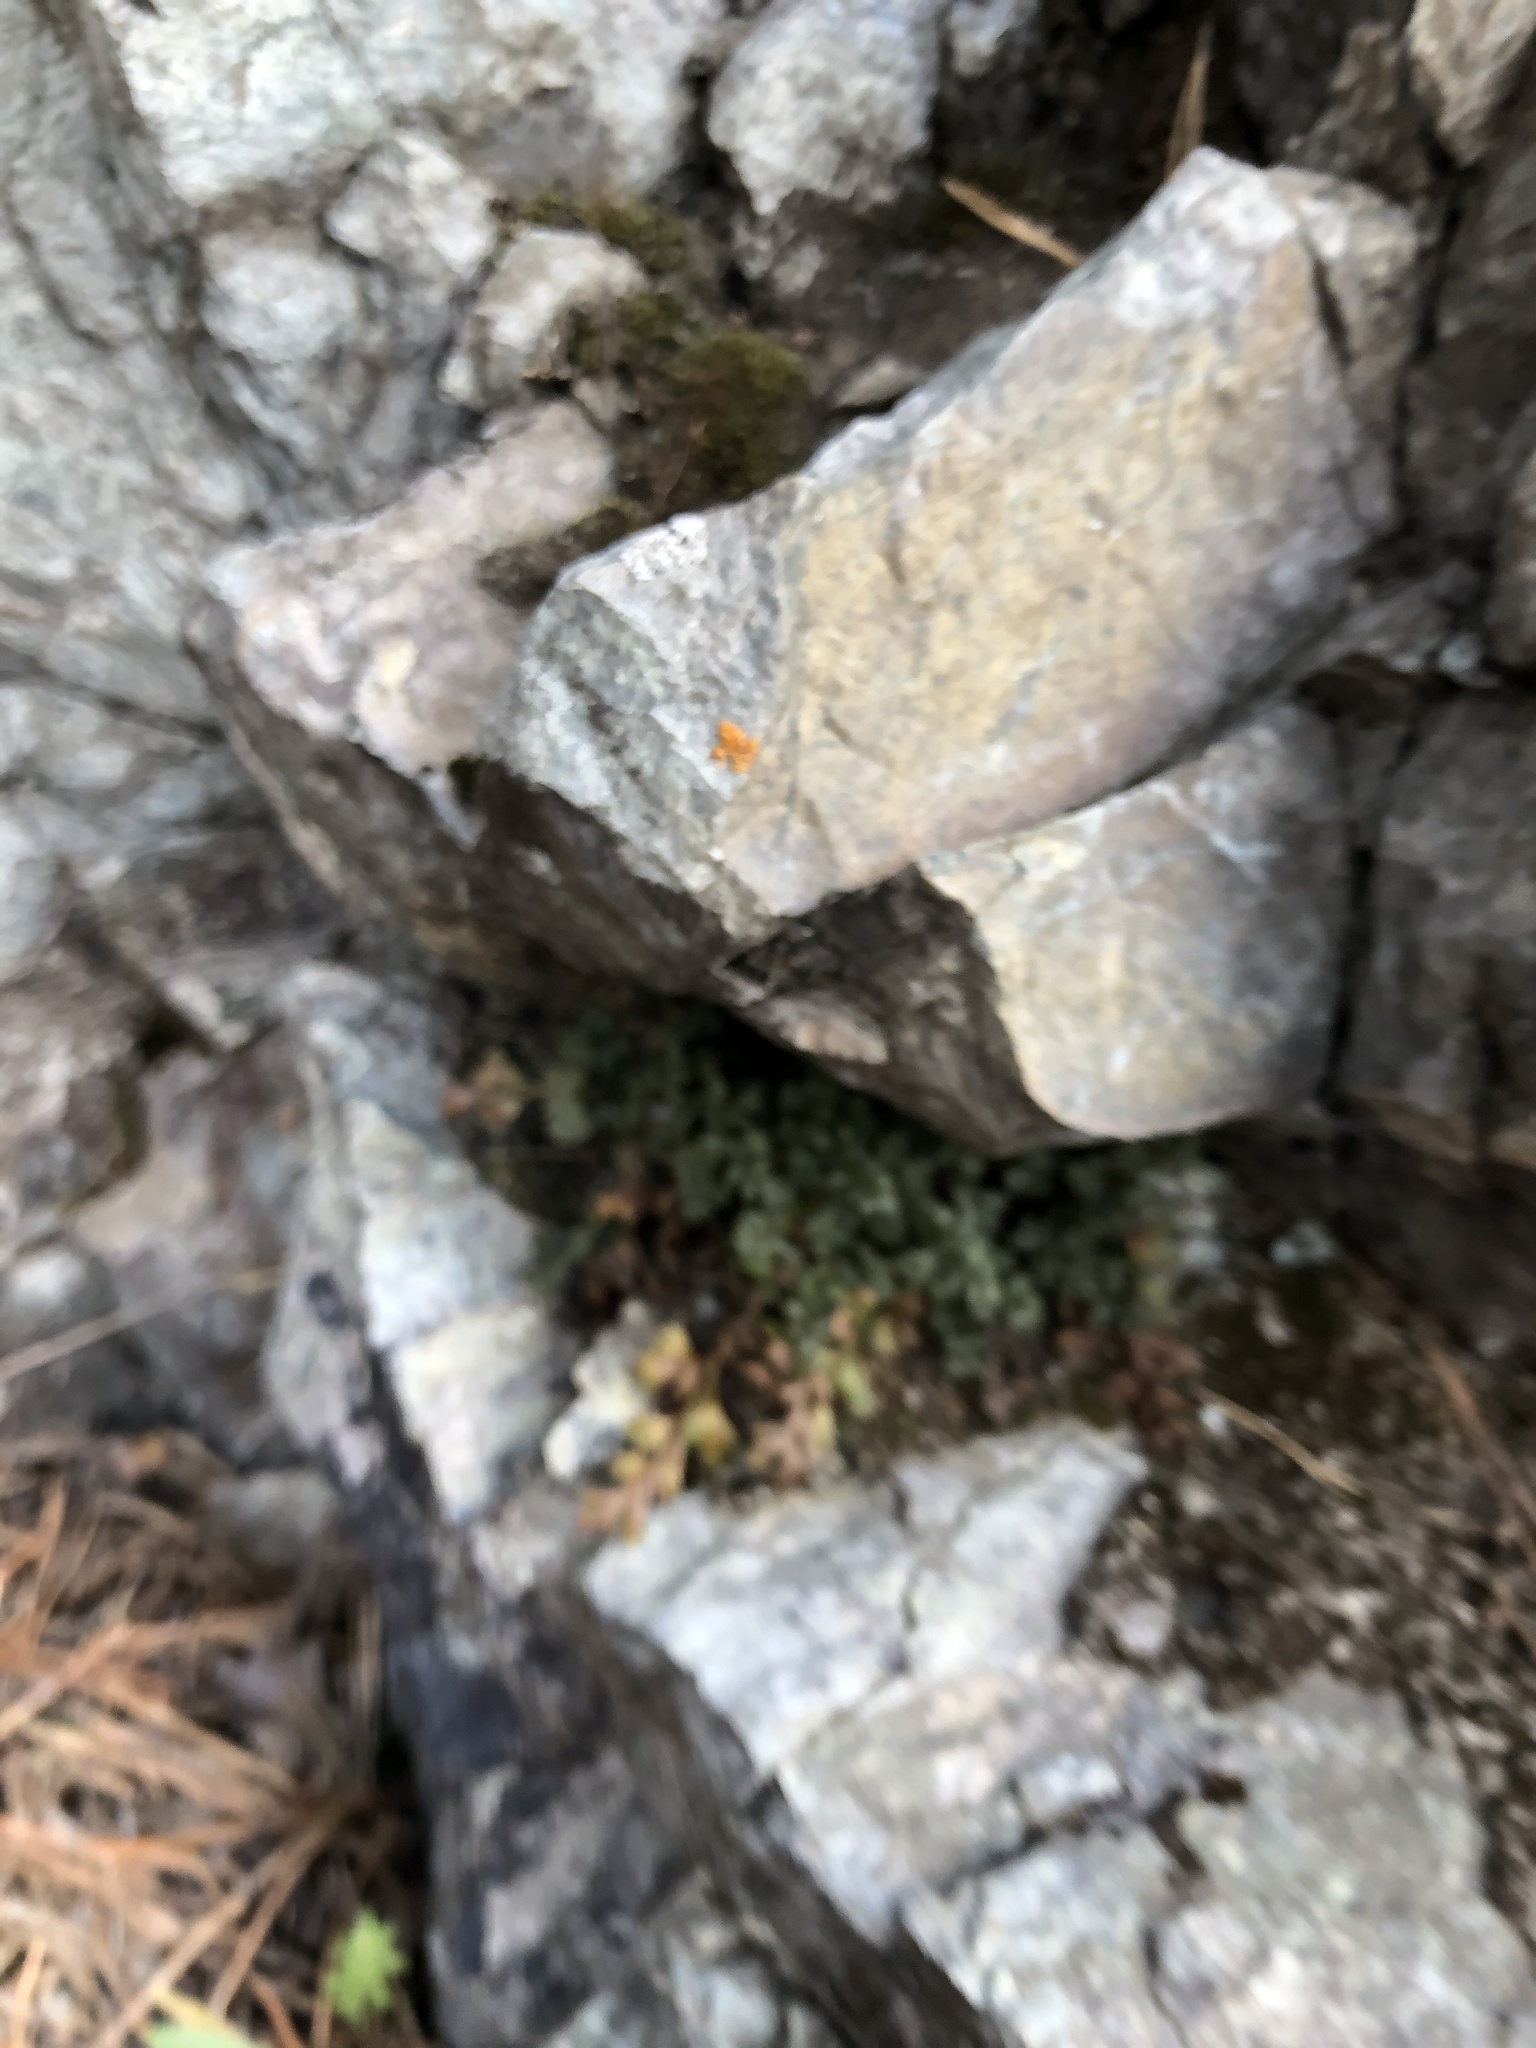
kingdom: Plantae
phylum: Tracheophyta
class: Polypodiopsida
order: Polypodiales
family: Aspleniaceae
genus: Asplenium
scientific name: Asplenium ruta-muraria
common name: Wall-rue
